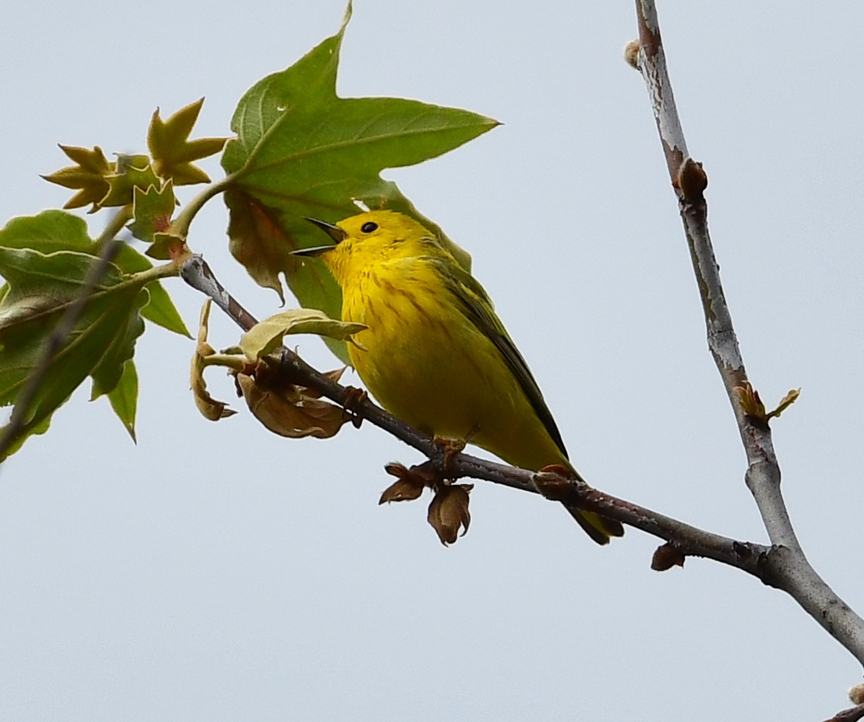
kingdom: Animalia
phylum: Chordata
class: Aves
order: Passeriformes
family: Parulidae
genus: Setophaga
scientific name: Setophaga petechia
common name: Yellow warbler
